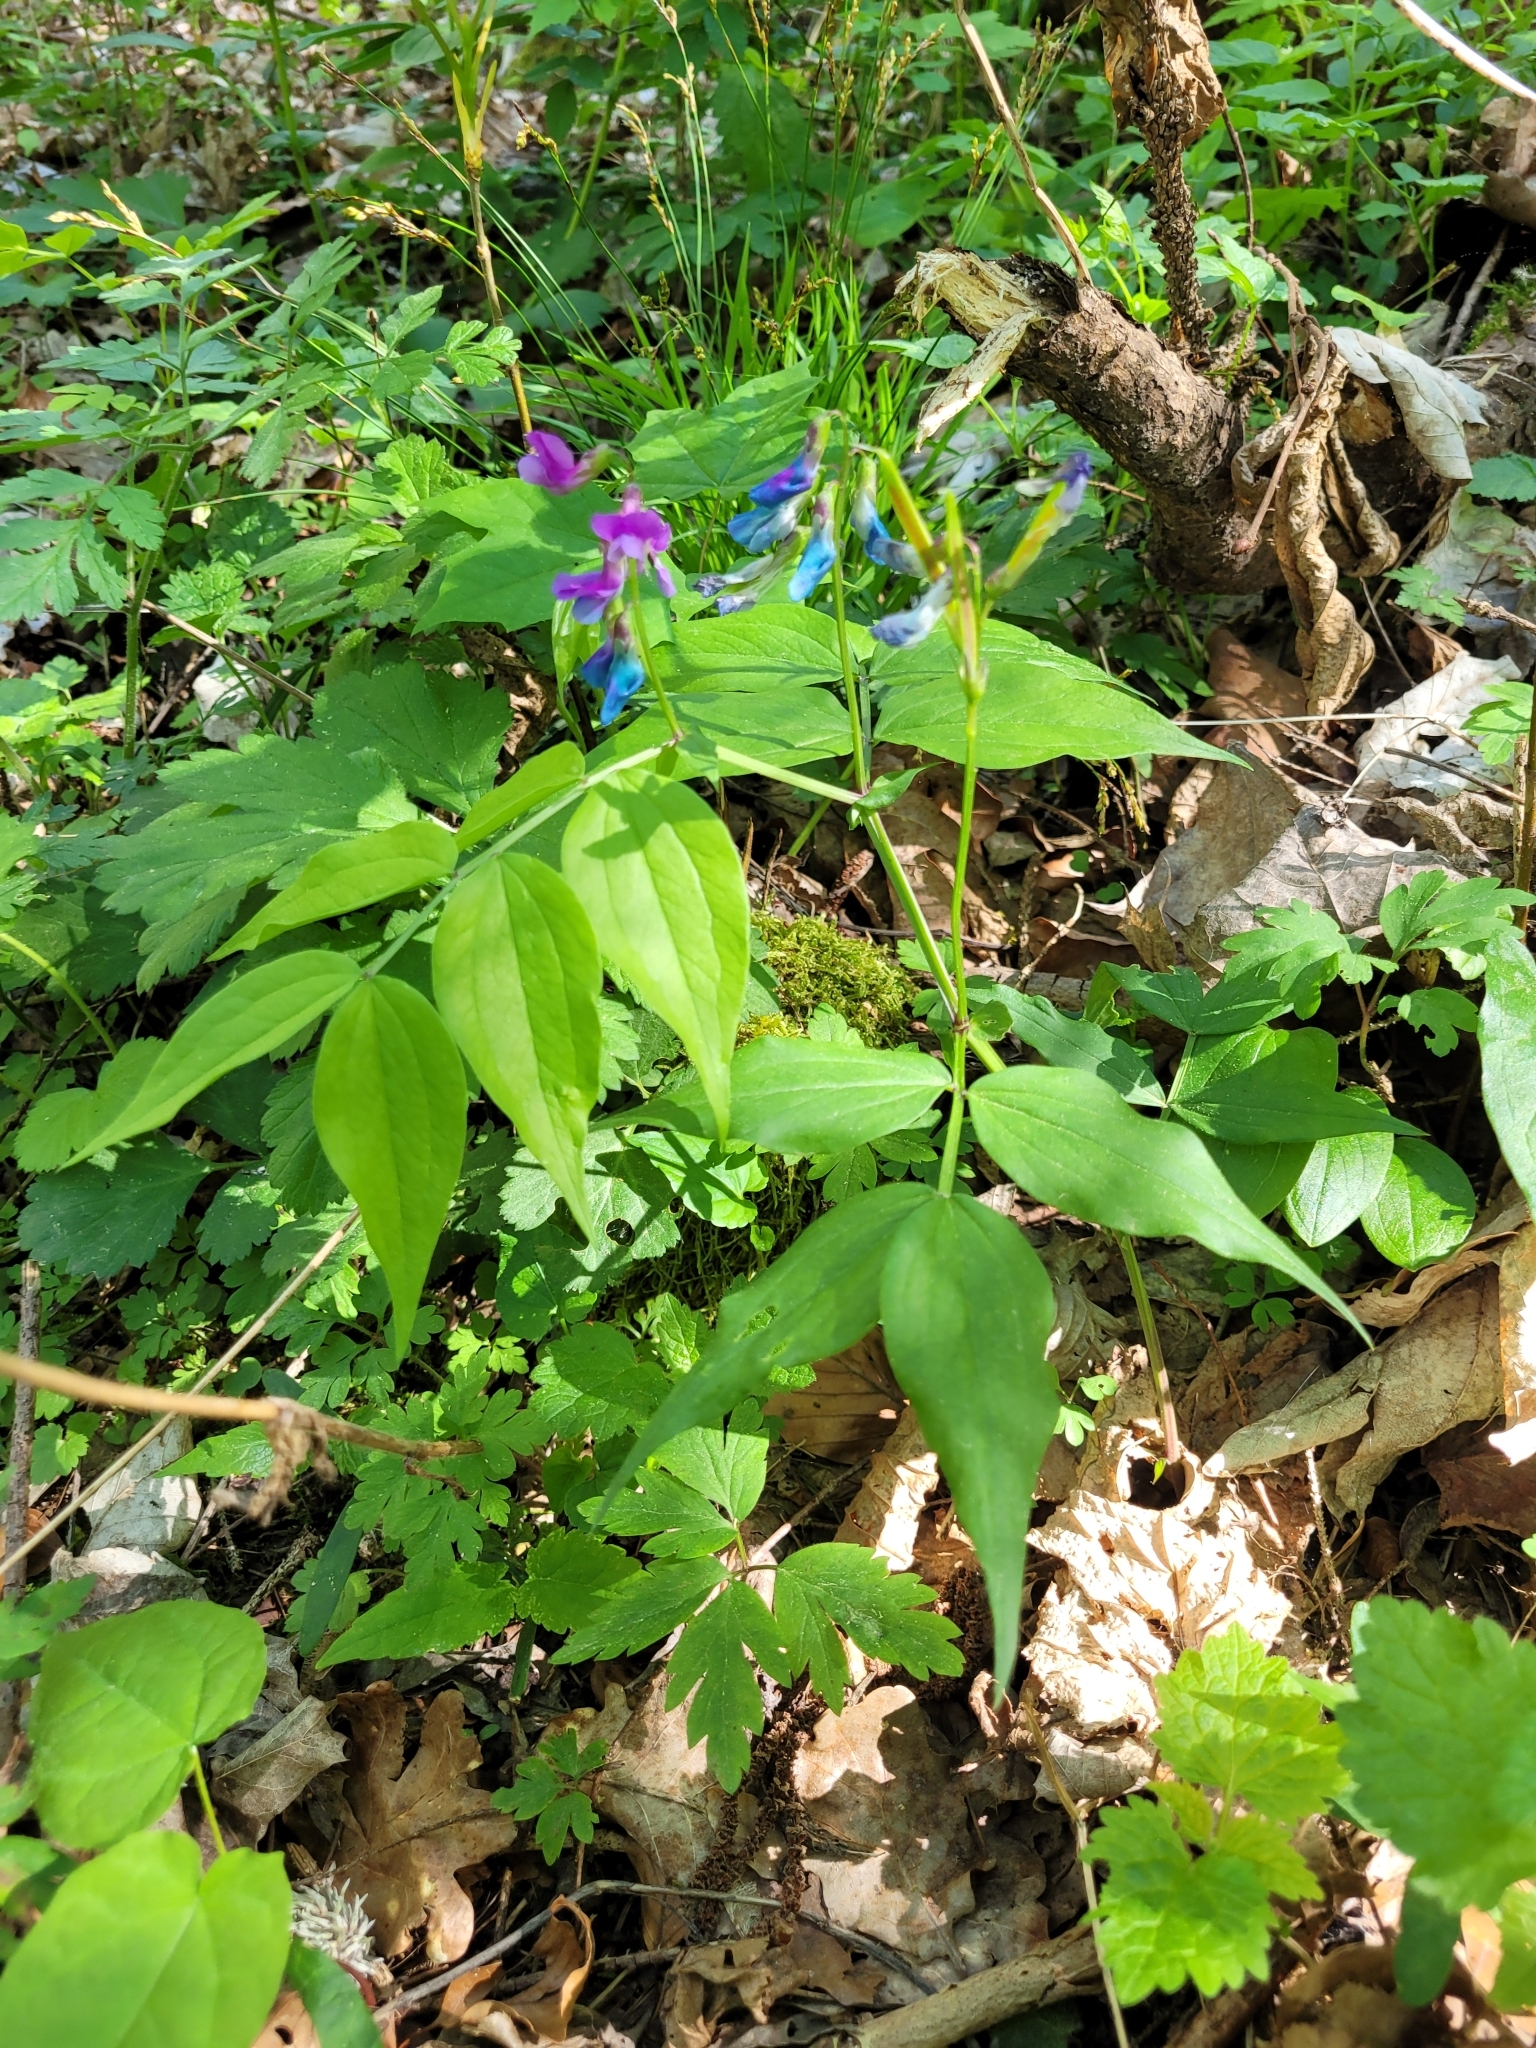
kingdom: Plantae
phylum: Tracheophyta
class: Magnoliopsida
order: Fabales
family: Fabaceae
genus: Lathyrus
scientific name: Lathyrus vernus
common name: Spring pea
